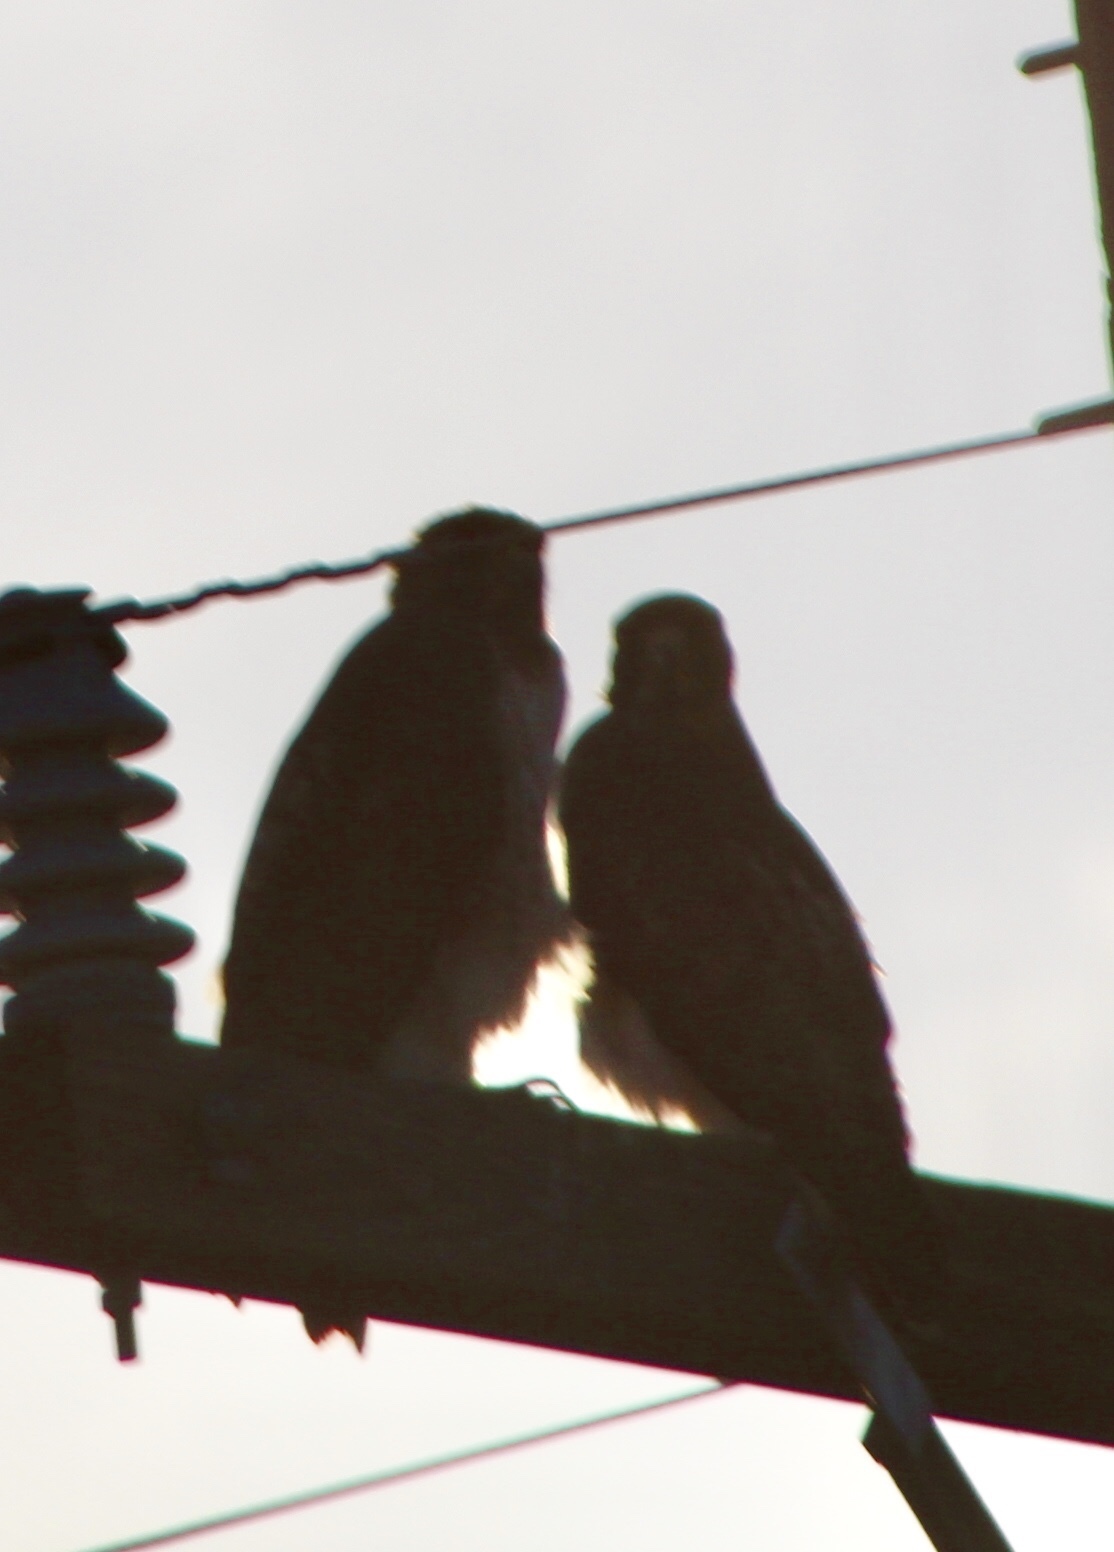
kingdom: Animalia
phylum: Chordata
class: Aves
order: Accipitriformes
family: Accipitridae
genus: Buteo
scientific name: Buteo jamaicensis
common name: Red-tailed hawk
